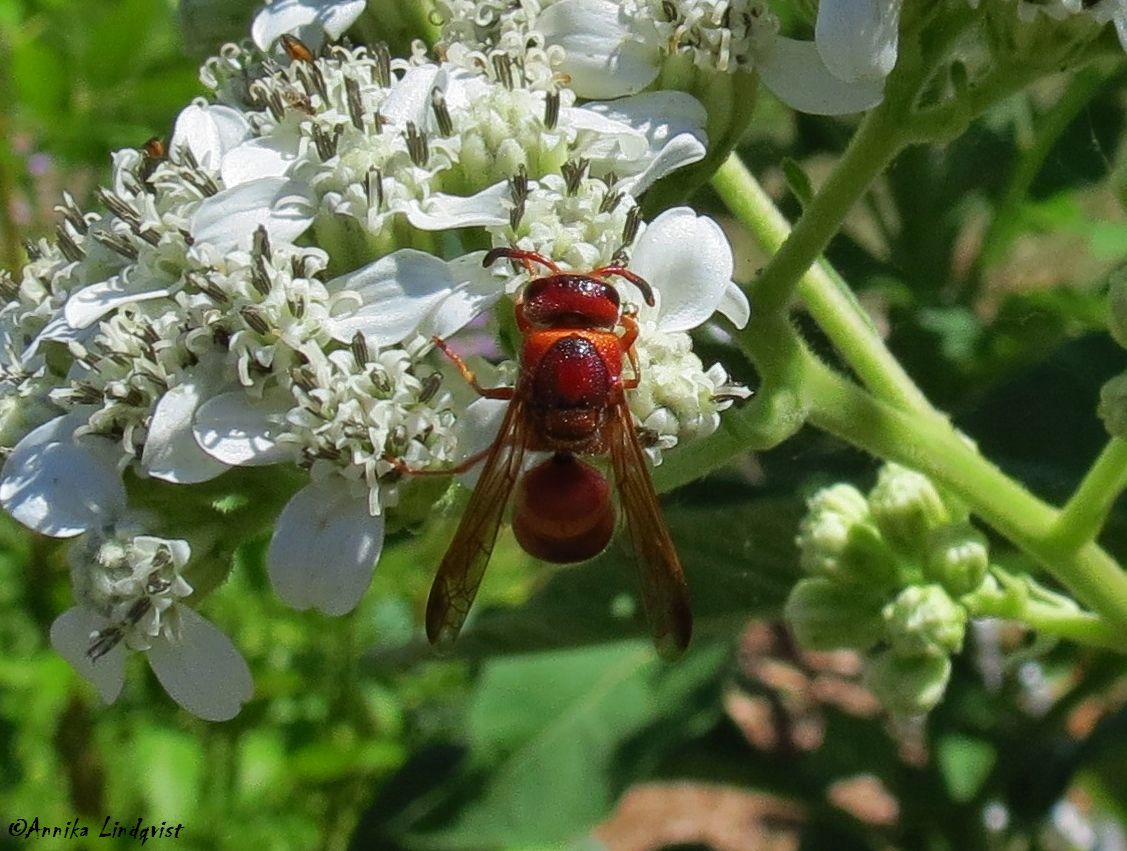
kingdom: Animalia
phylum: Arthropoda
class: Insecta
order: Hymenoptera
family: Eumenidae
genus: Euodynerus
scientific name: Euodynerus pratensis
